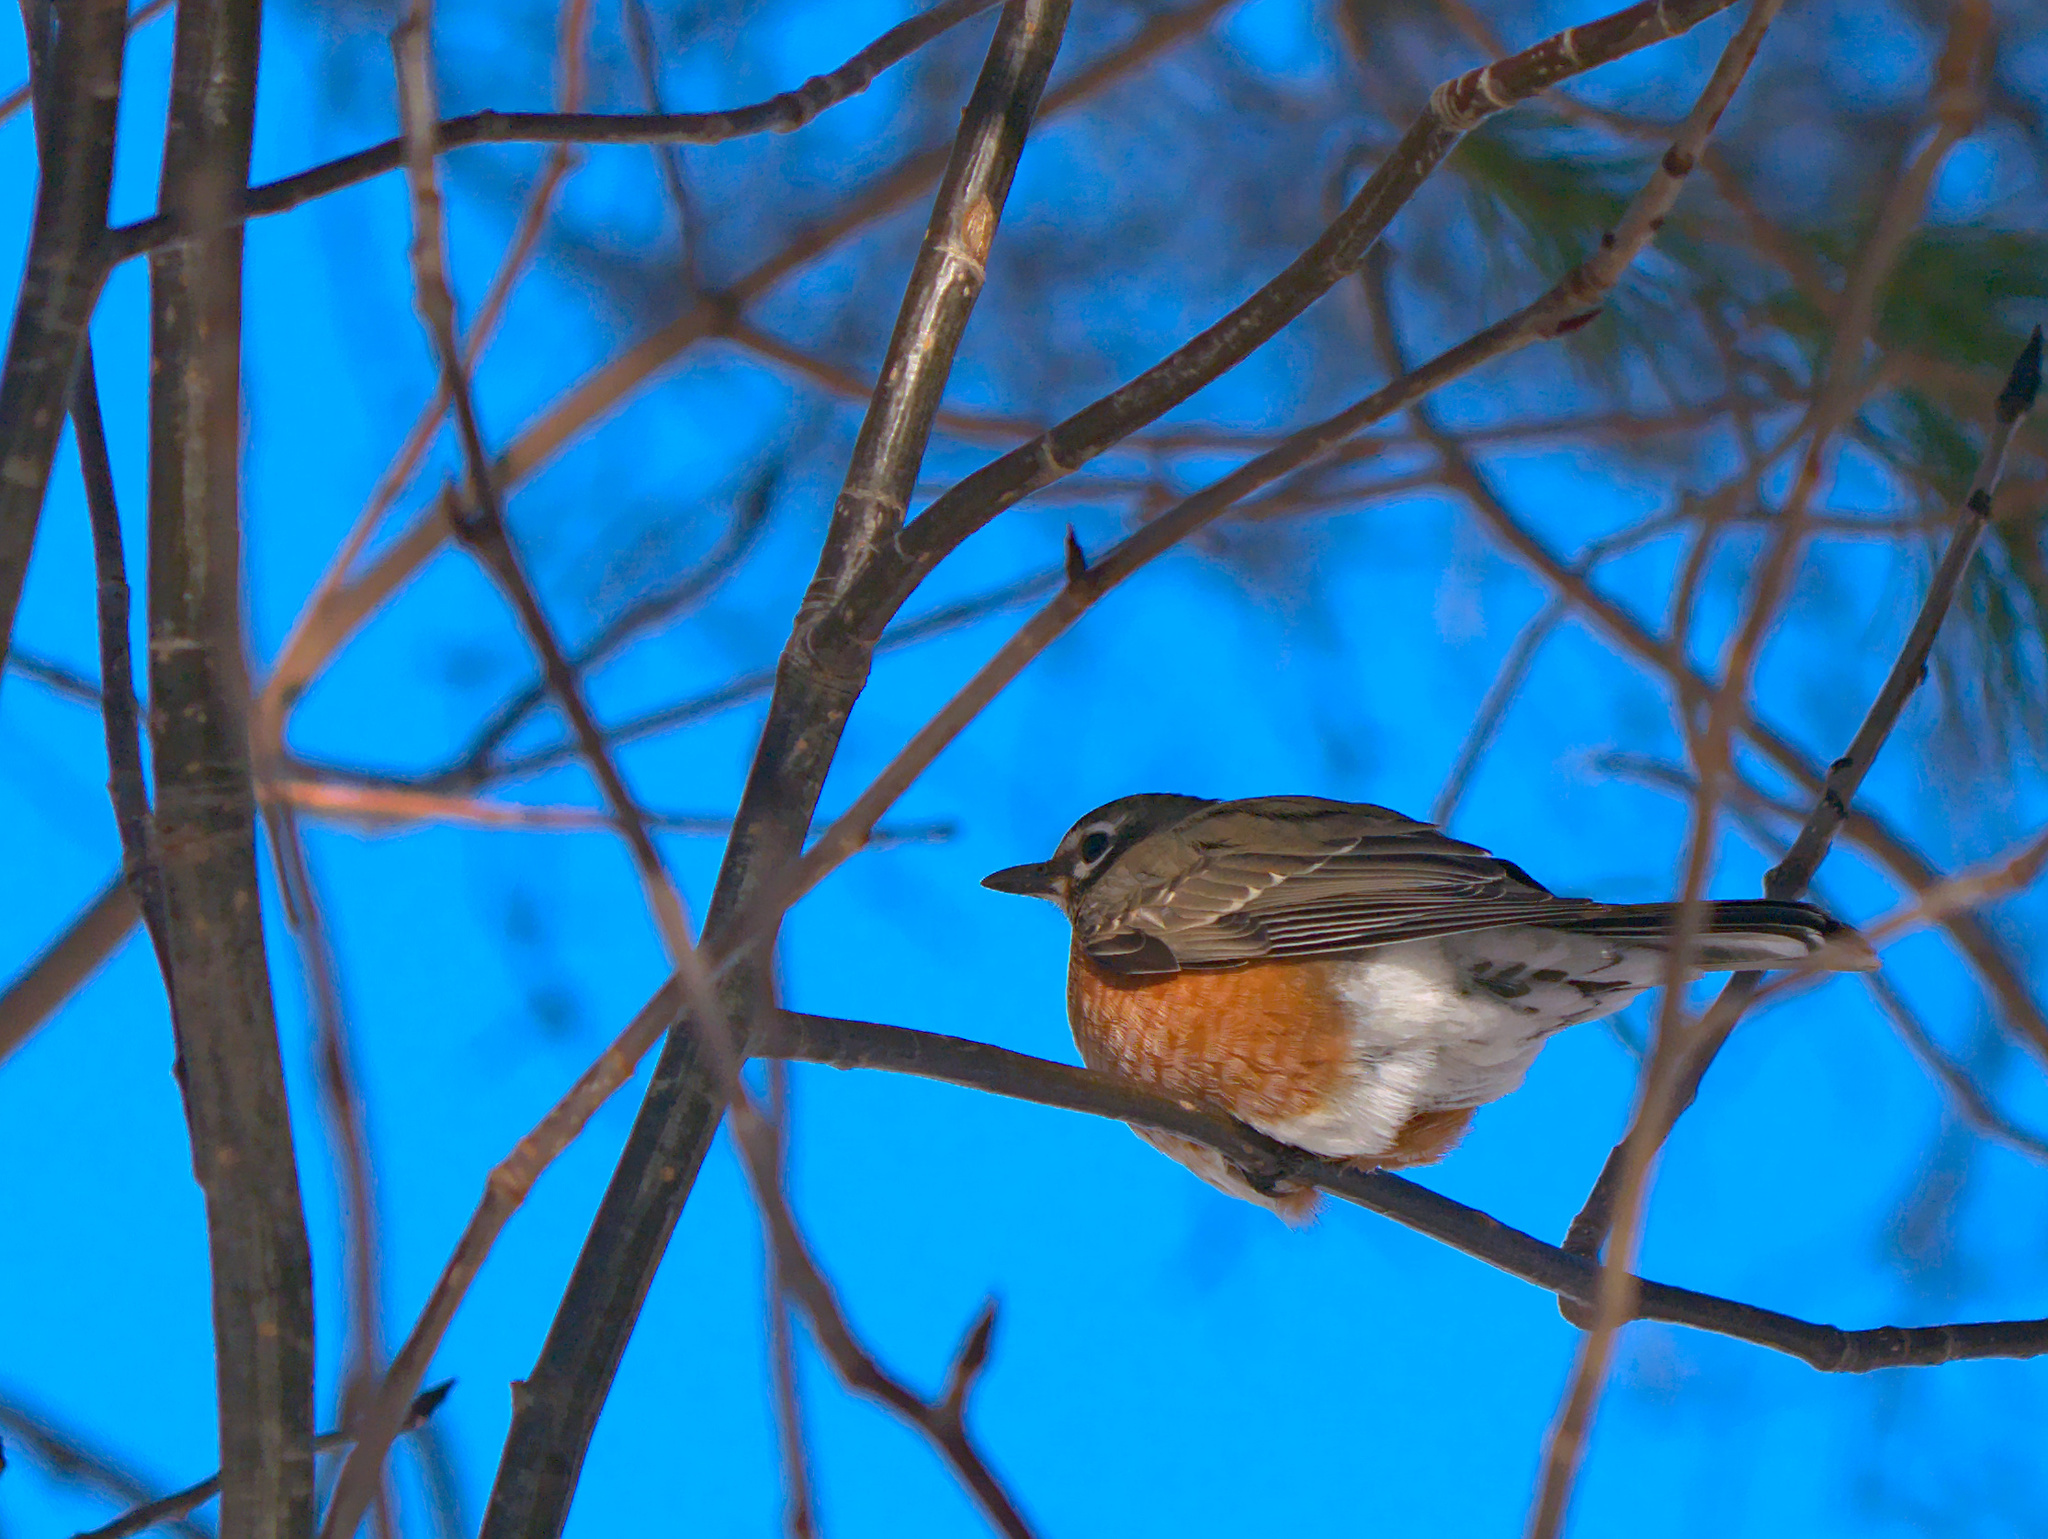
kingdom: Animalia
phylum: Chordata
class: Aves
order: Passeriformes
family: Turdidae
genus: Turdus
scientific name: Turdus migratorius
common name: American robin
